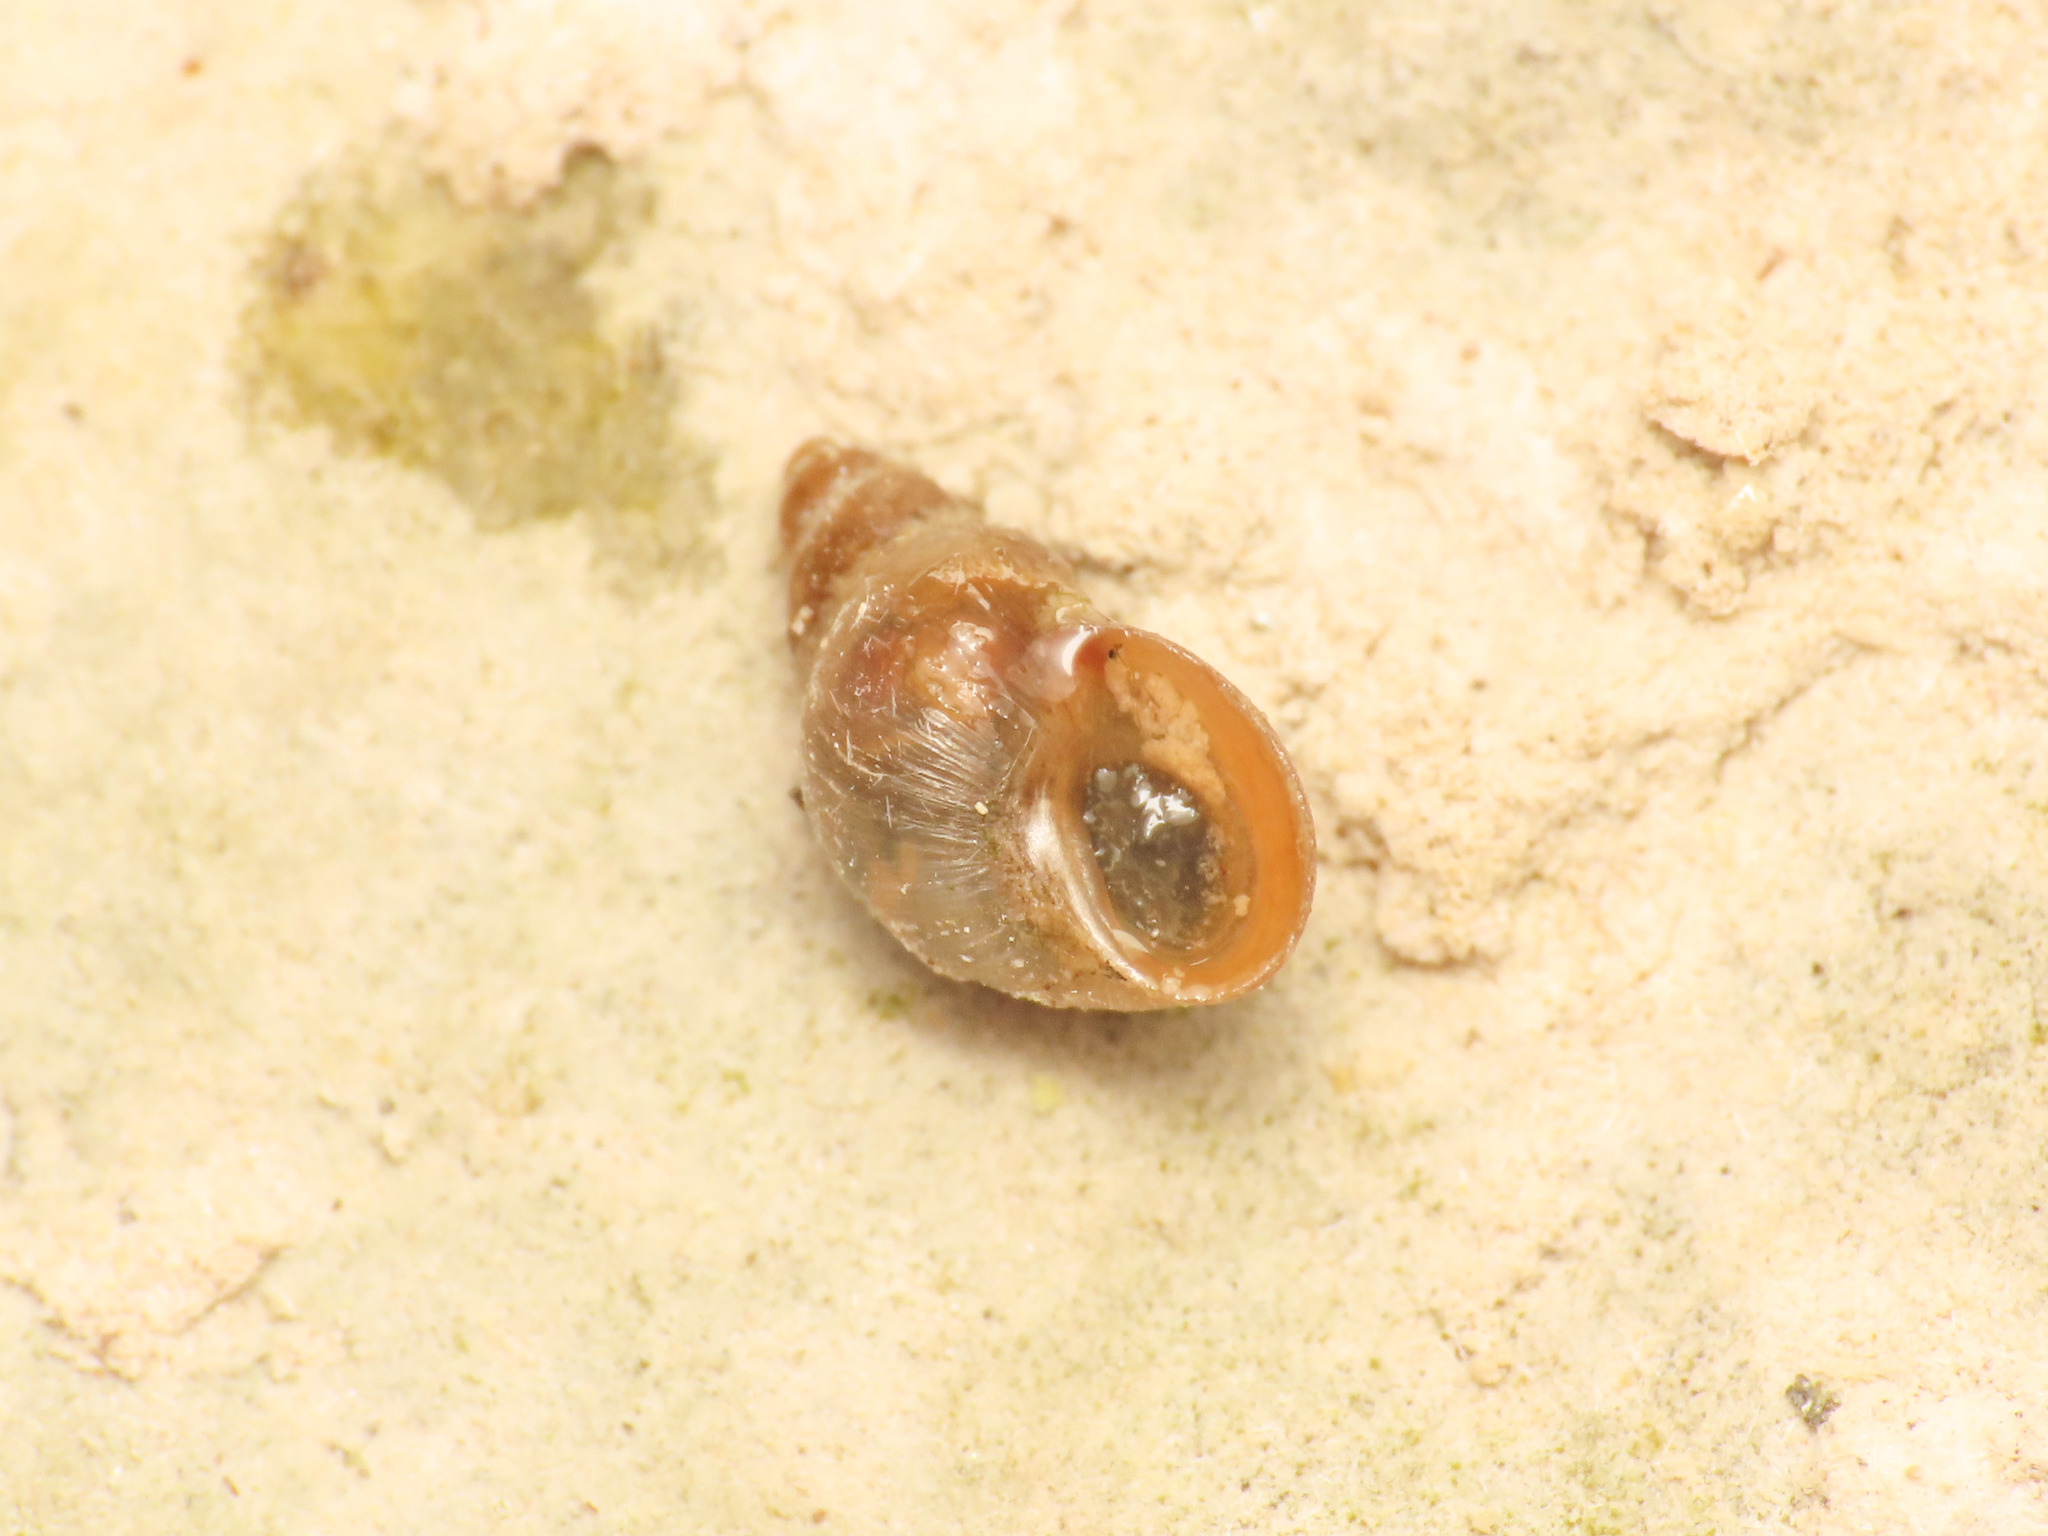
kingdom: Animalia
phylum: Mollusca
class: Gastropoda
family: Lymnaeidae
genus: Galba
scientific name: Galba truncatula
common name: Dwarf pond snail
